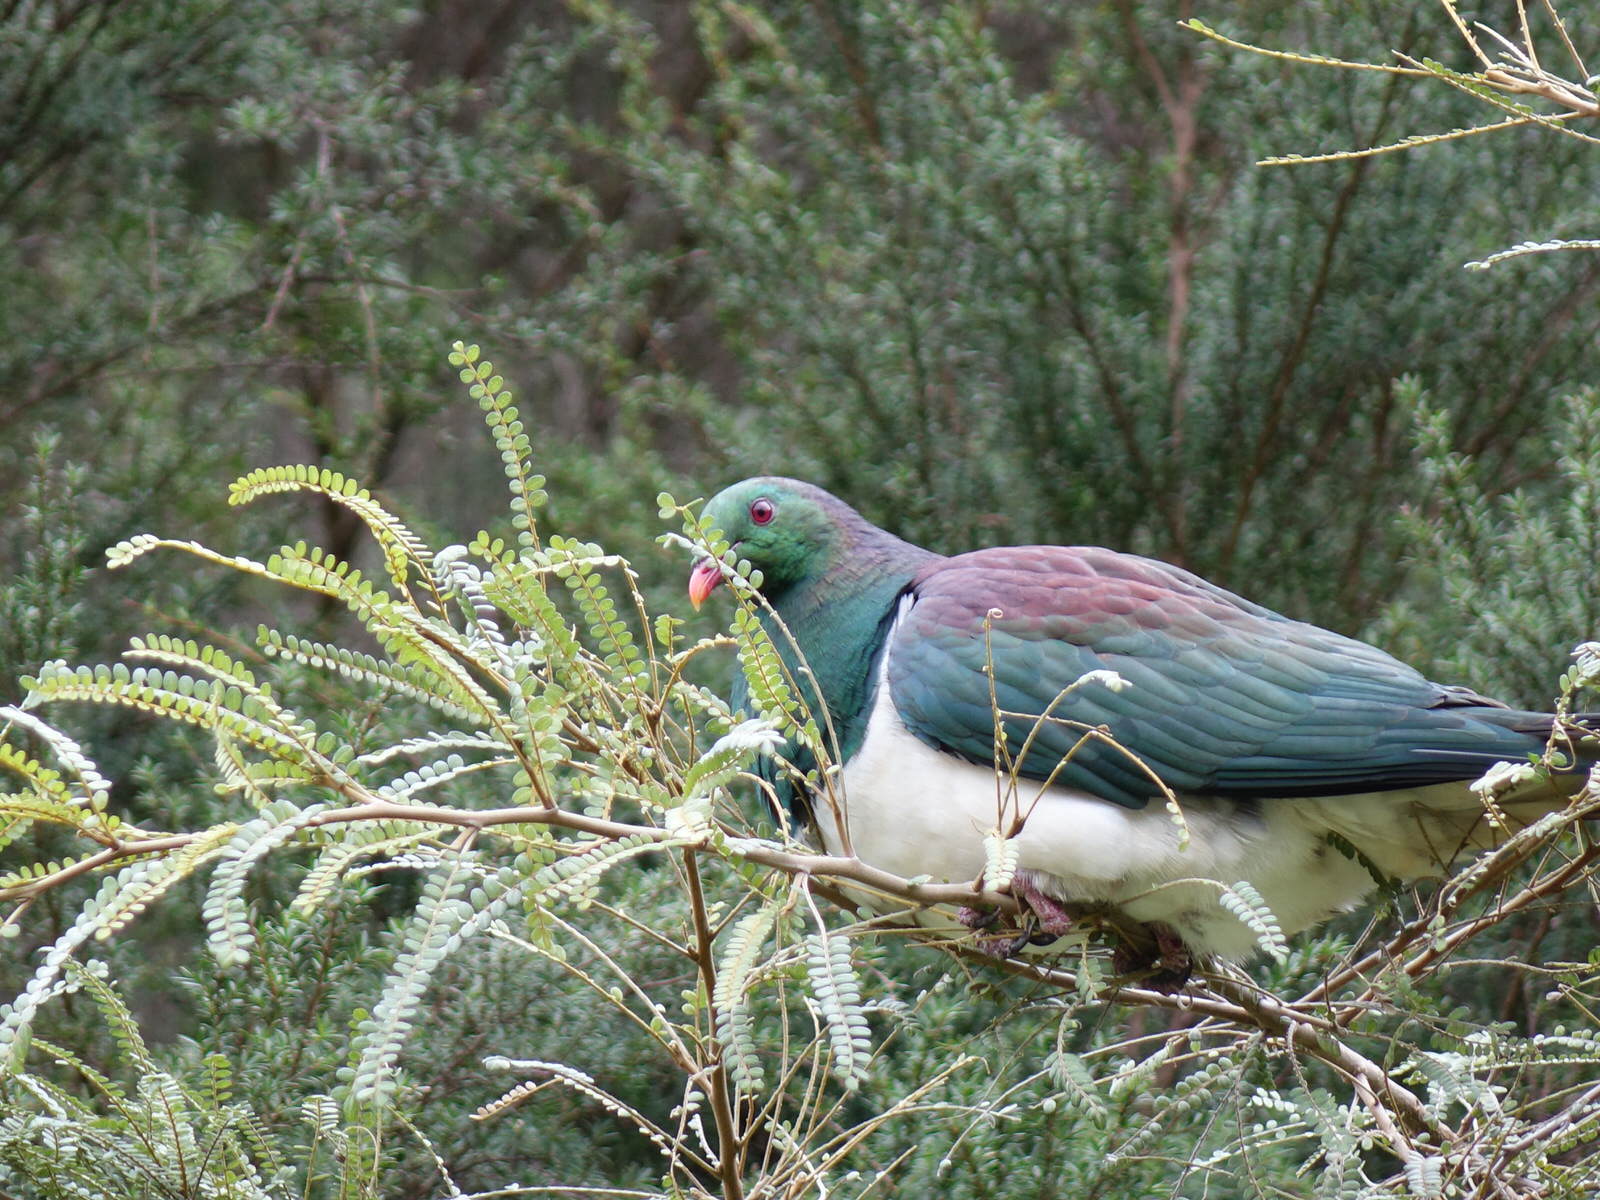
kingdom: Animalia
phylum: Chordata
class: Aves
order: Columbiformes
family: Columbidae
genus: Hemiphaga
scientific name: Hemiphaga novaeseelandiae
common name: New zealand pigeon
